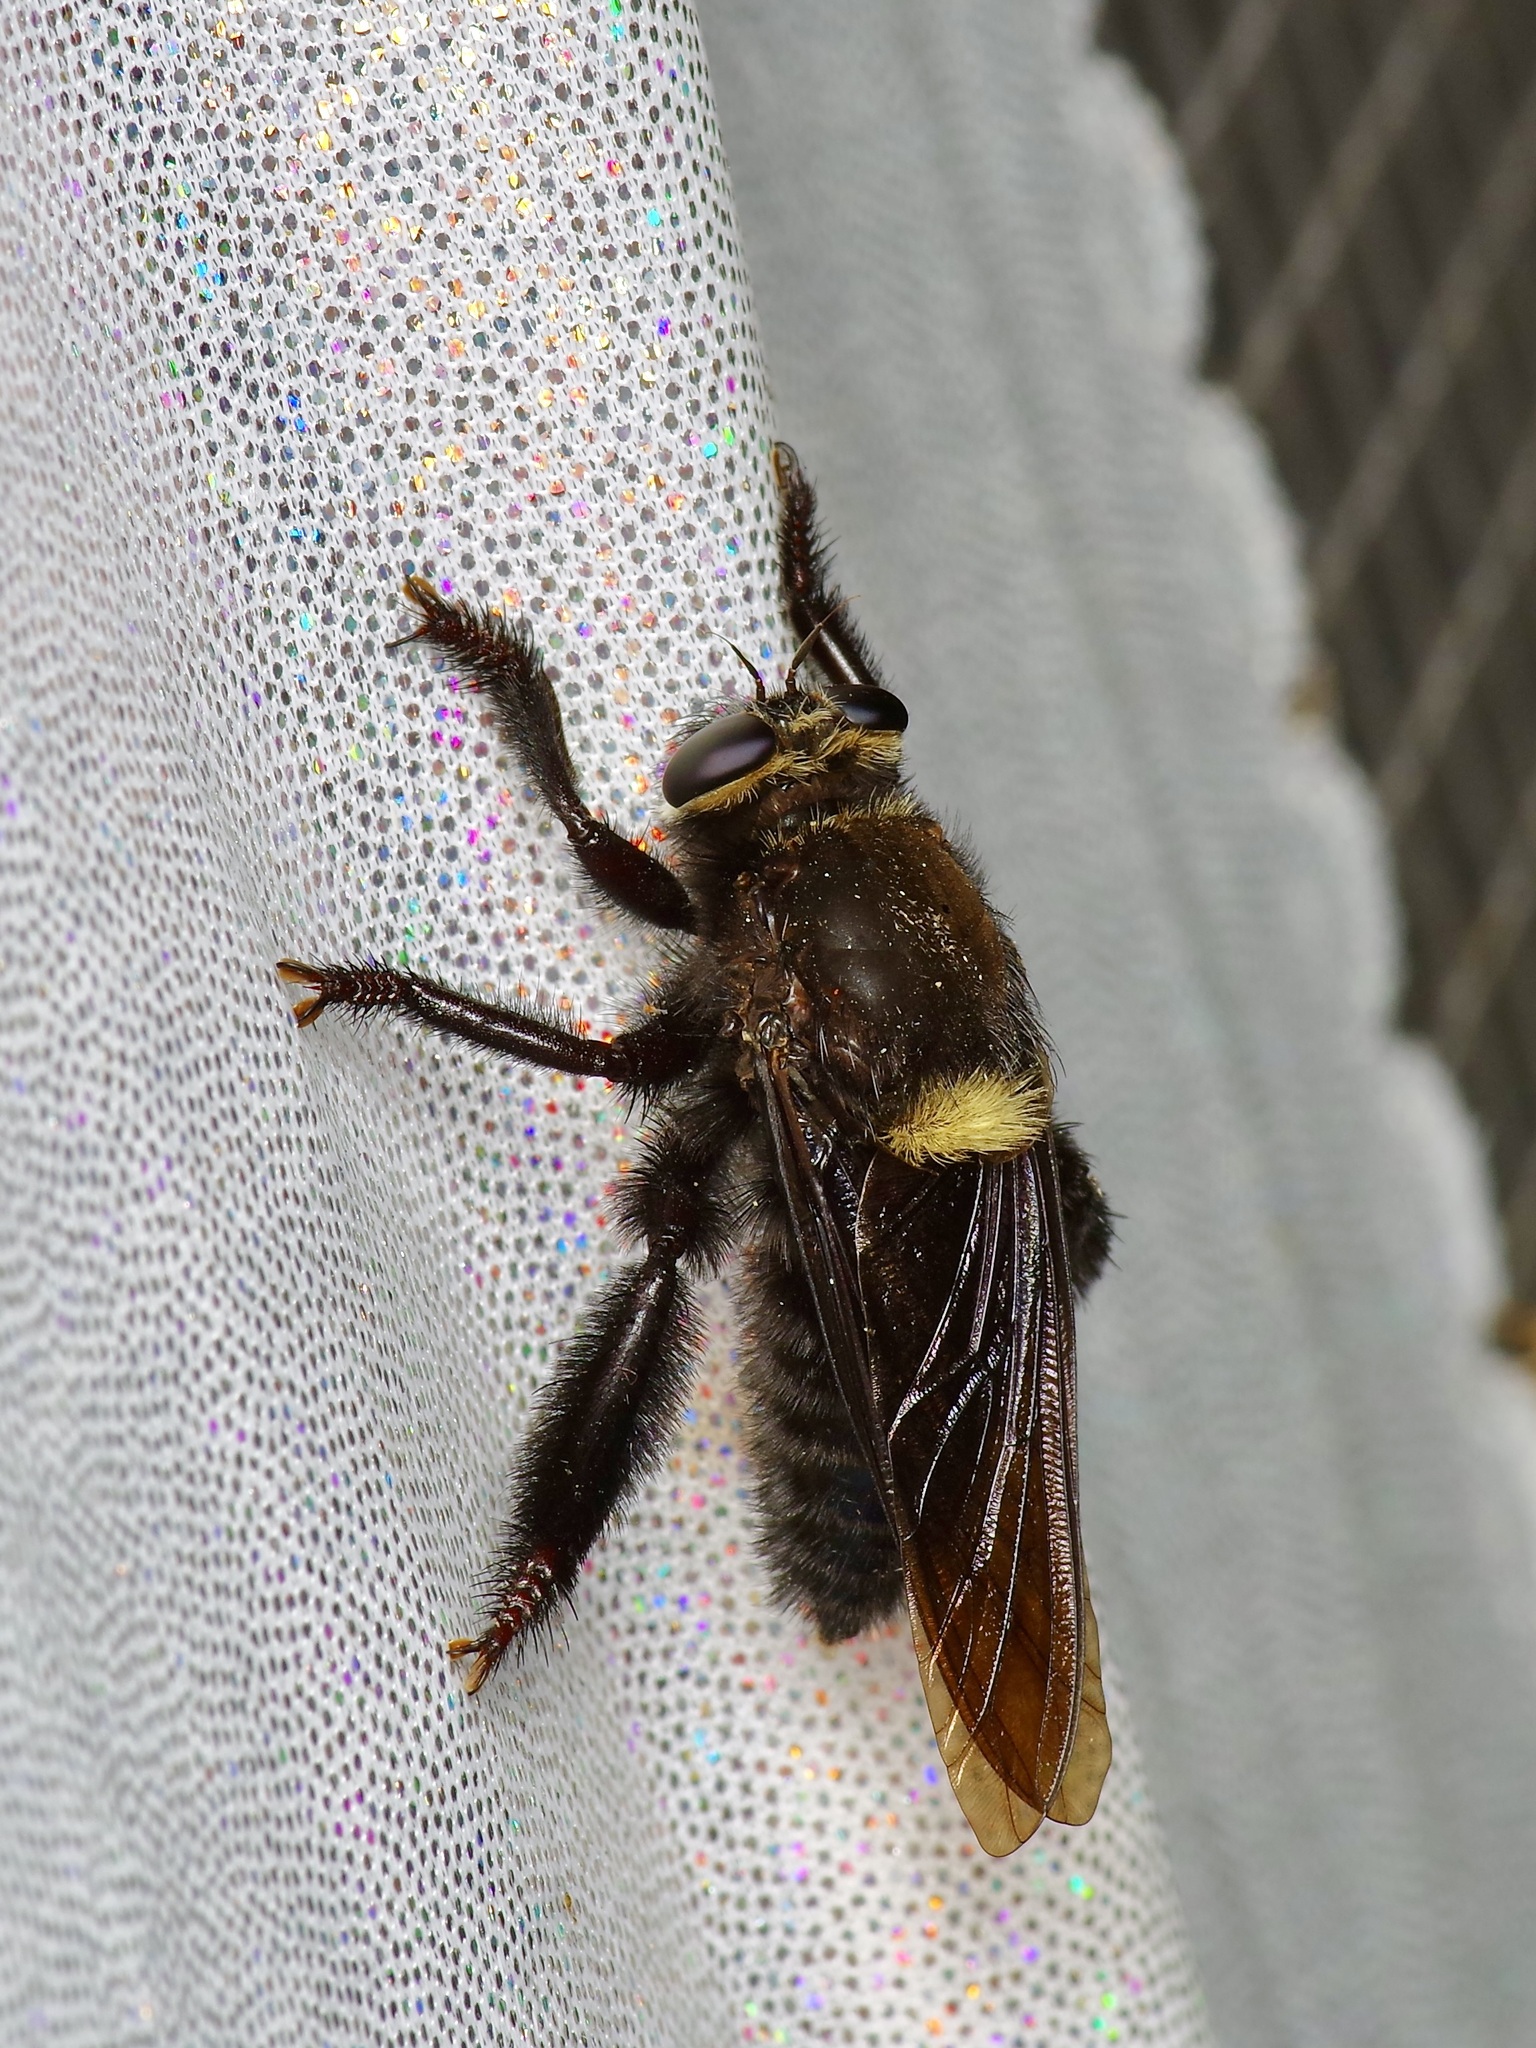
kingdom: Animalia
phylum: Arthropoda
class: Insecta
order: Diptera
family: Asilidae
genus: Mallophora
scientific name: Mallophora leschenaultii
